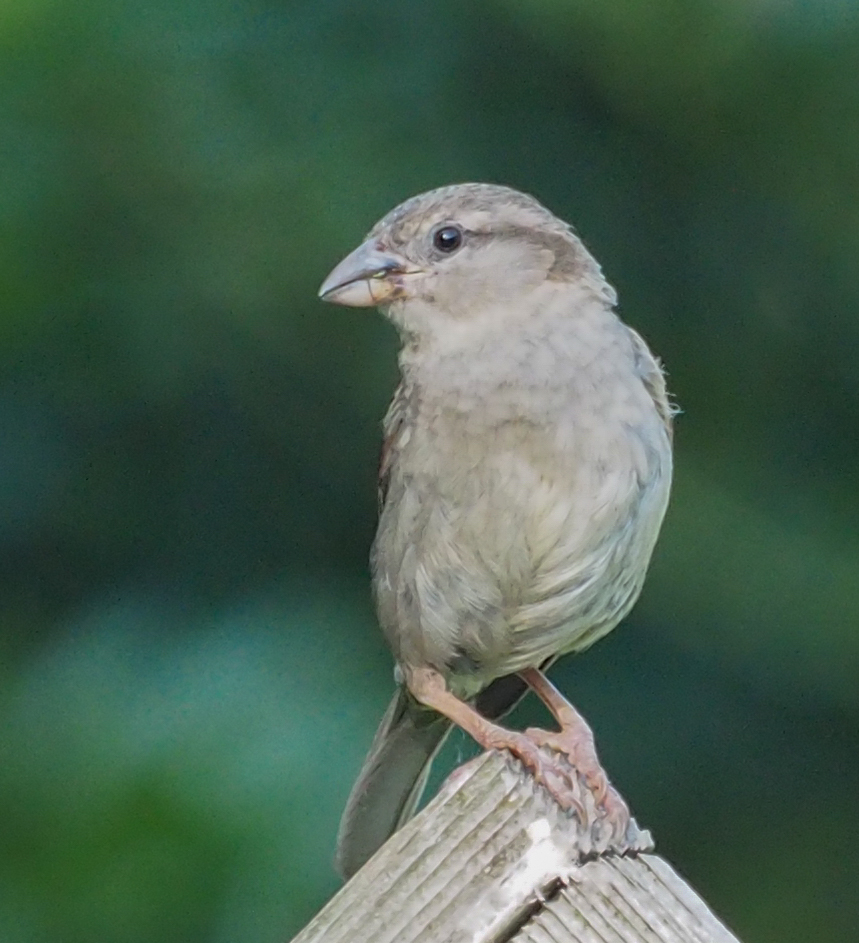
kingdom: Animalia
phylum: Chordata
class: Aves
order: Passeriformes
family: Passeridae
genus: Passer
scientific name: Passer domesticus
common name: House sparrow
